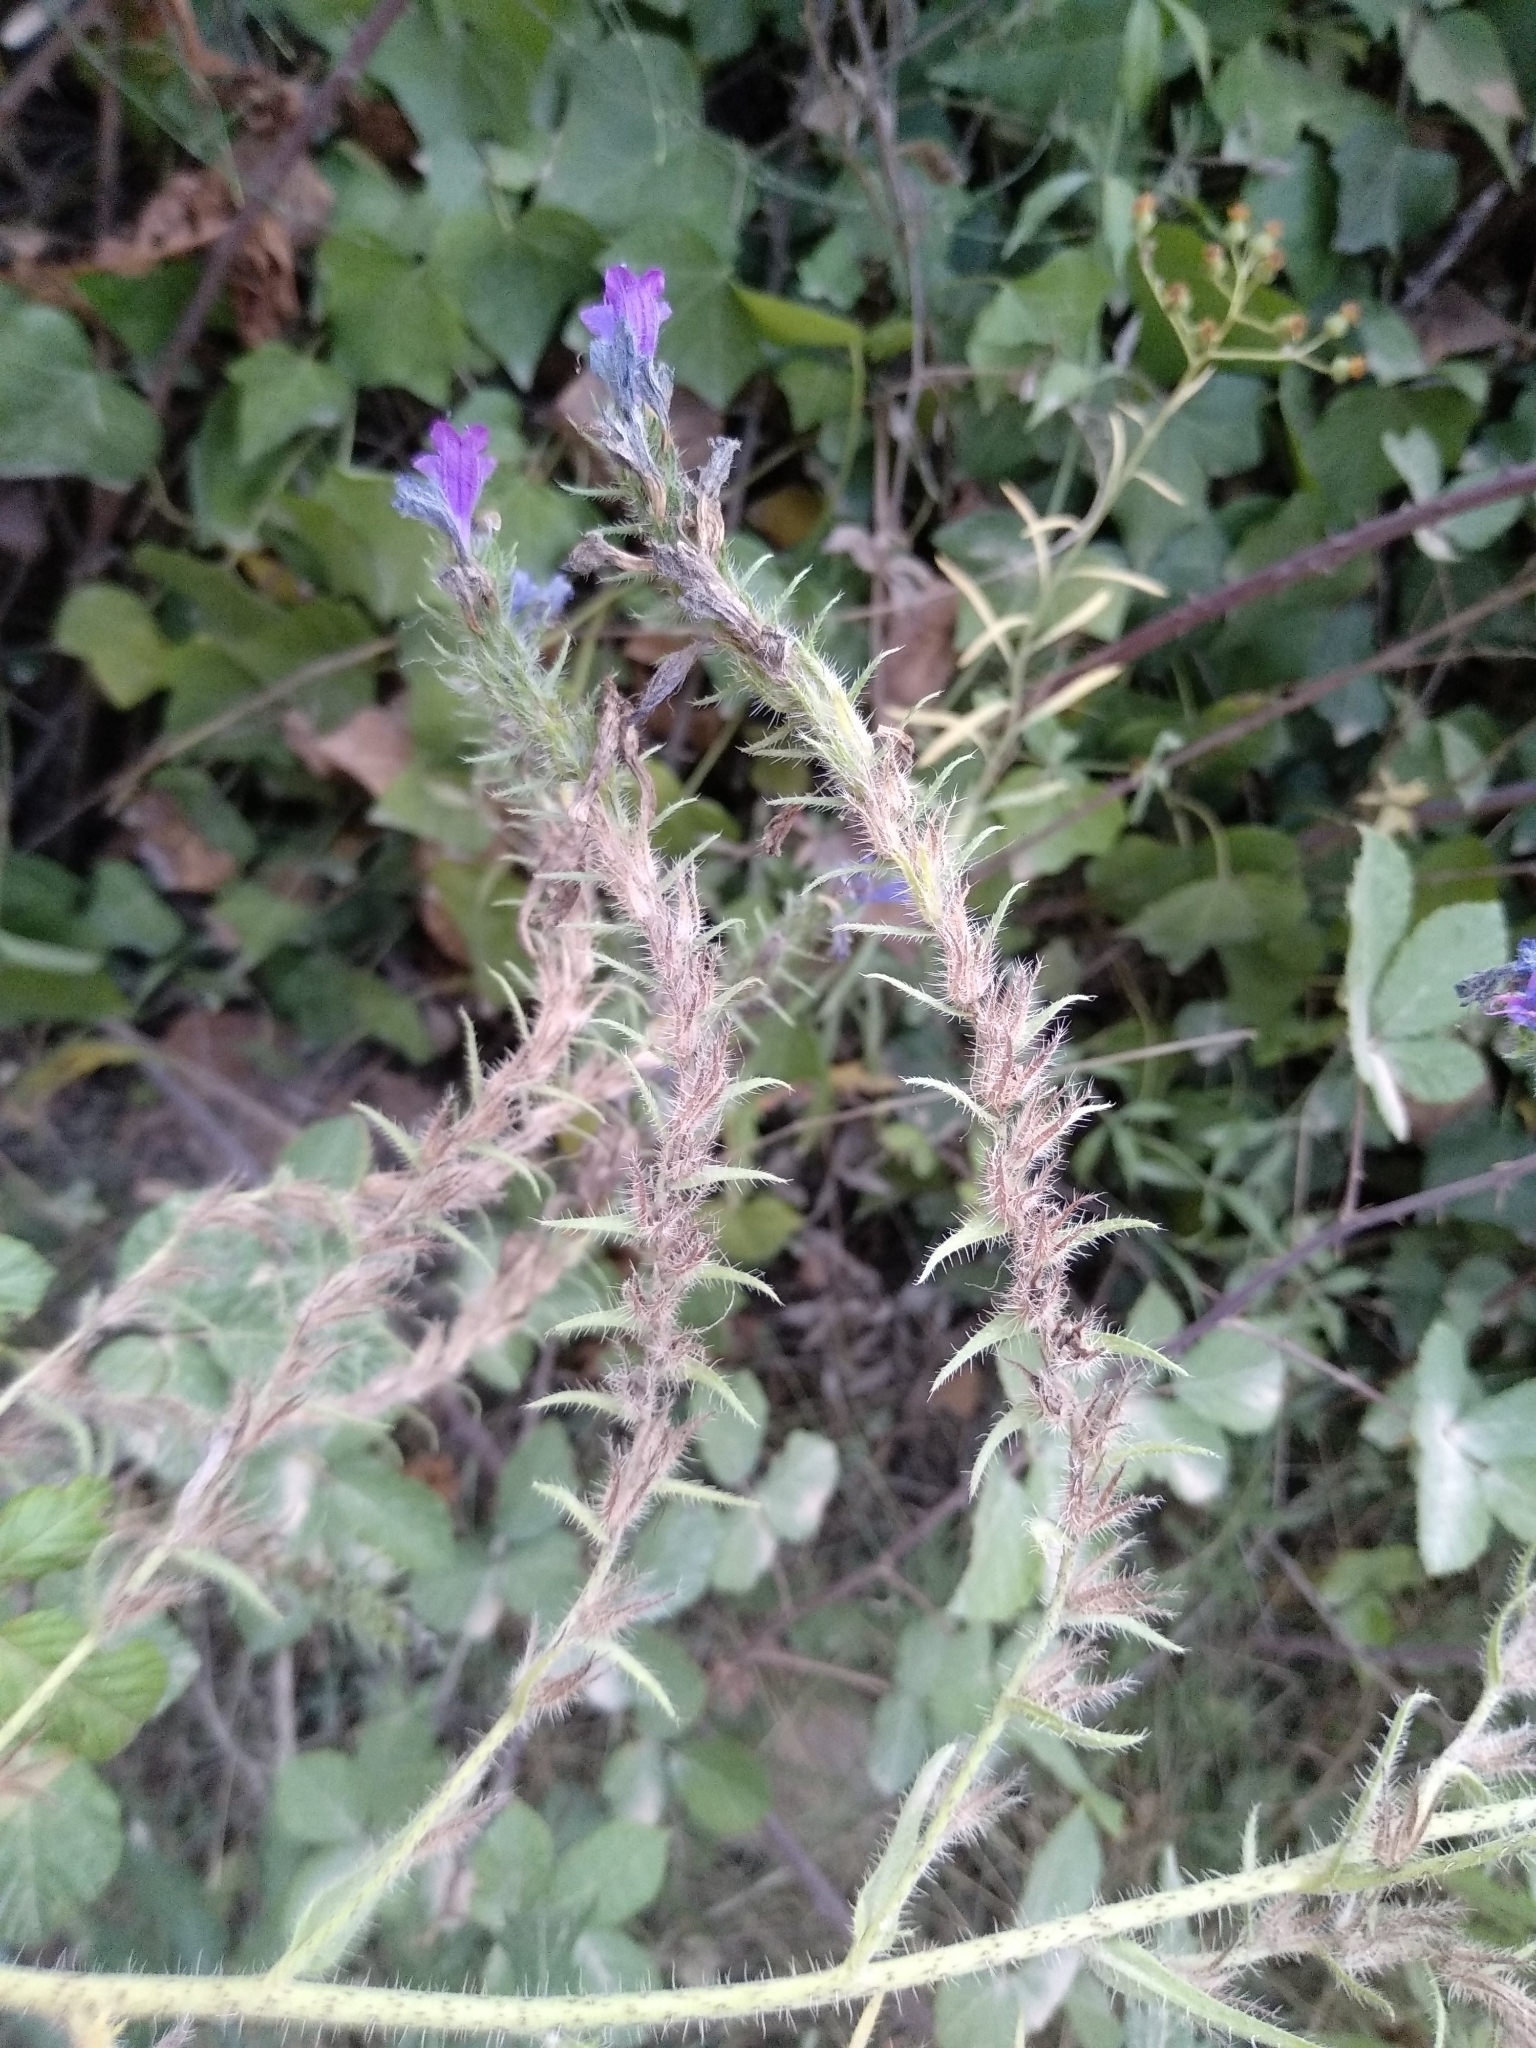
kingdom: Plantae
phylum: Tracheophyta
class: Magnoliopsida
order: Boraginales
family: Boraginaceae
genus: Echium
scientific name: Echium vulgare
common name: Common viper's bugloss
